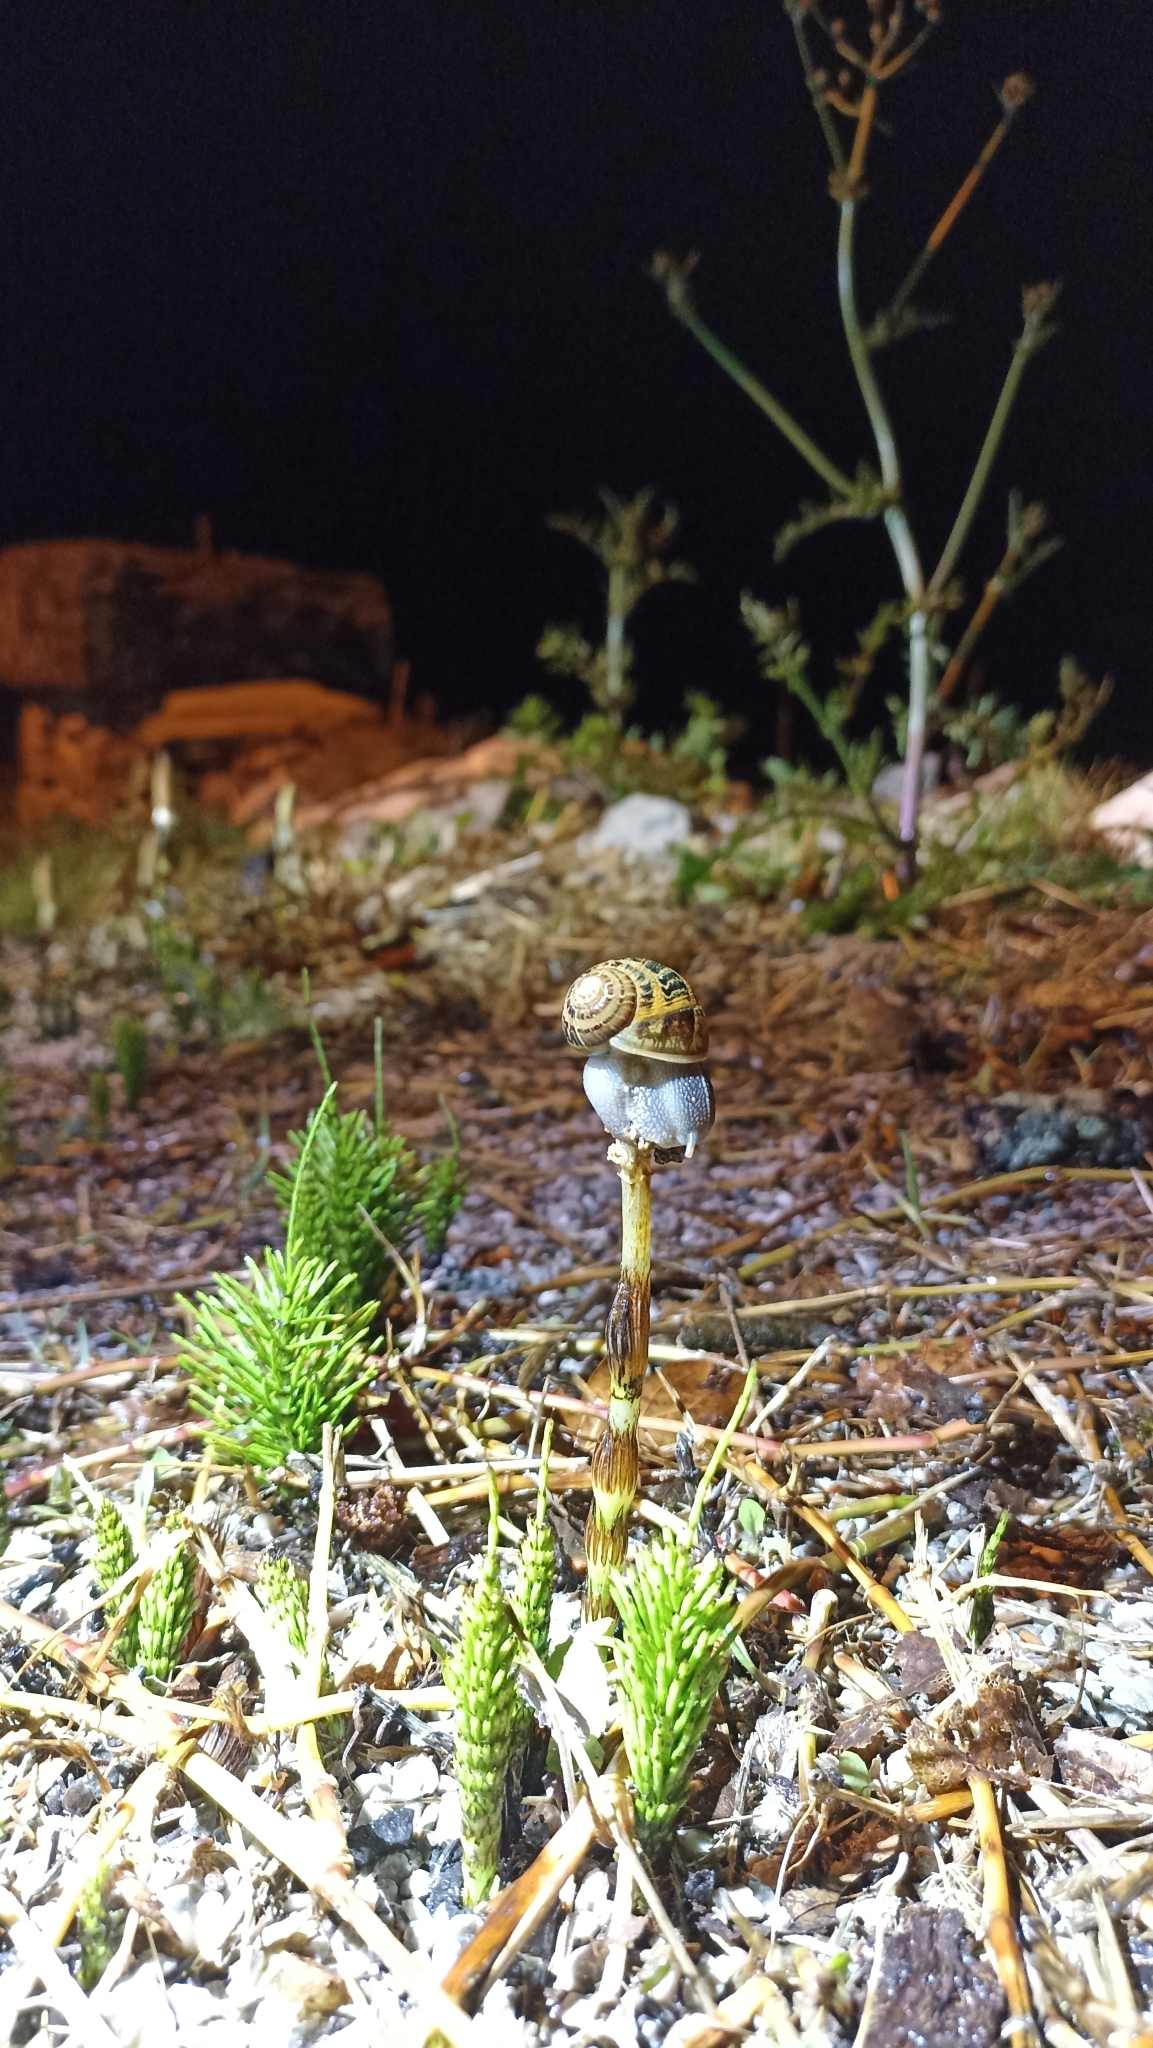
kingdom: Animalia
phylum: Mollusca
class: Gastropoda
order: Stylommatophora
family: Helicidae
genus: Cornu
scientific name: Cornu aspersum
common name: Brown garden snail
